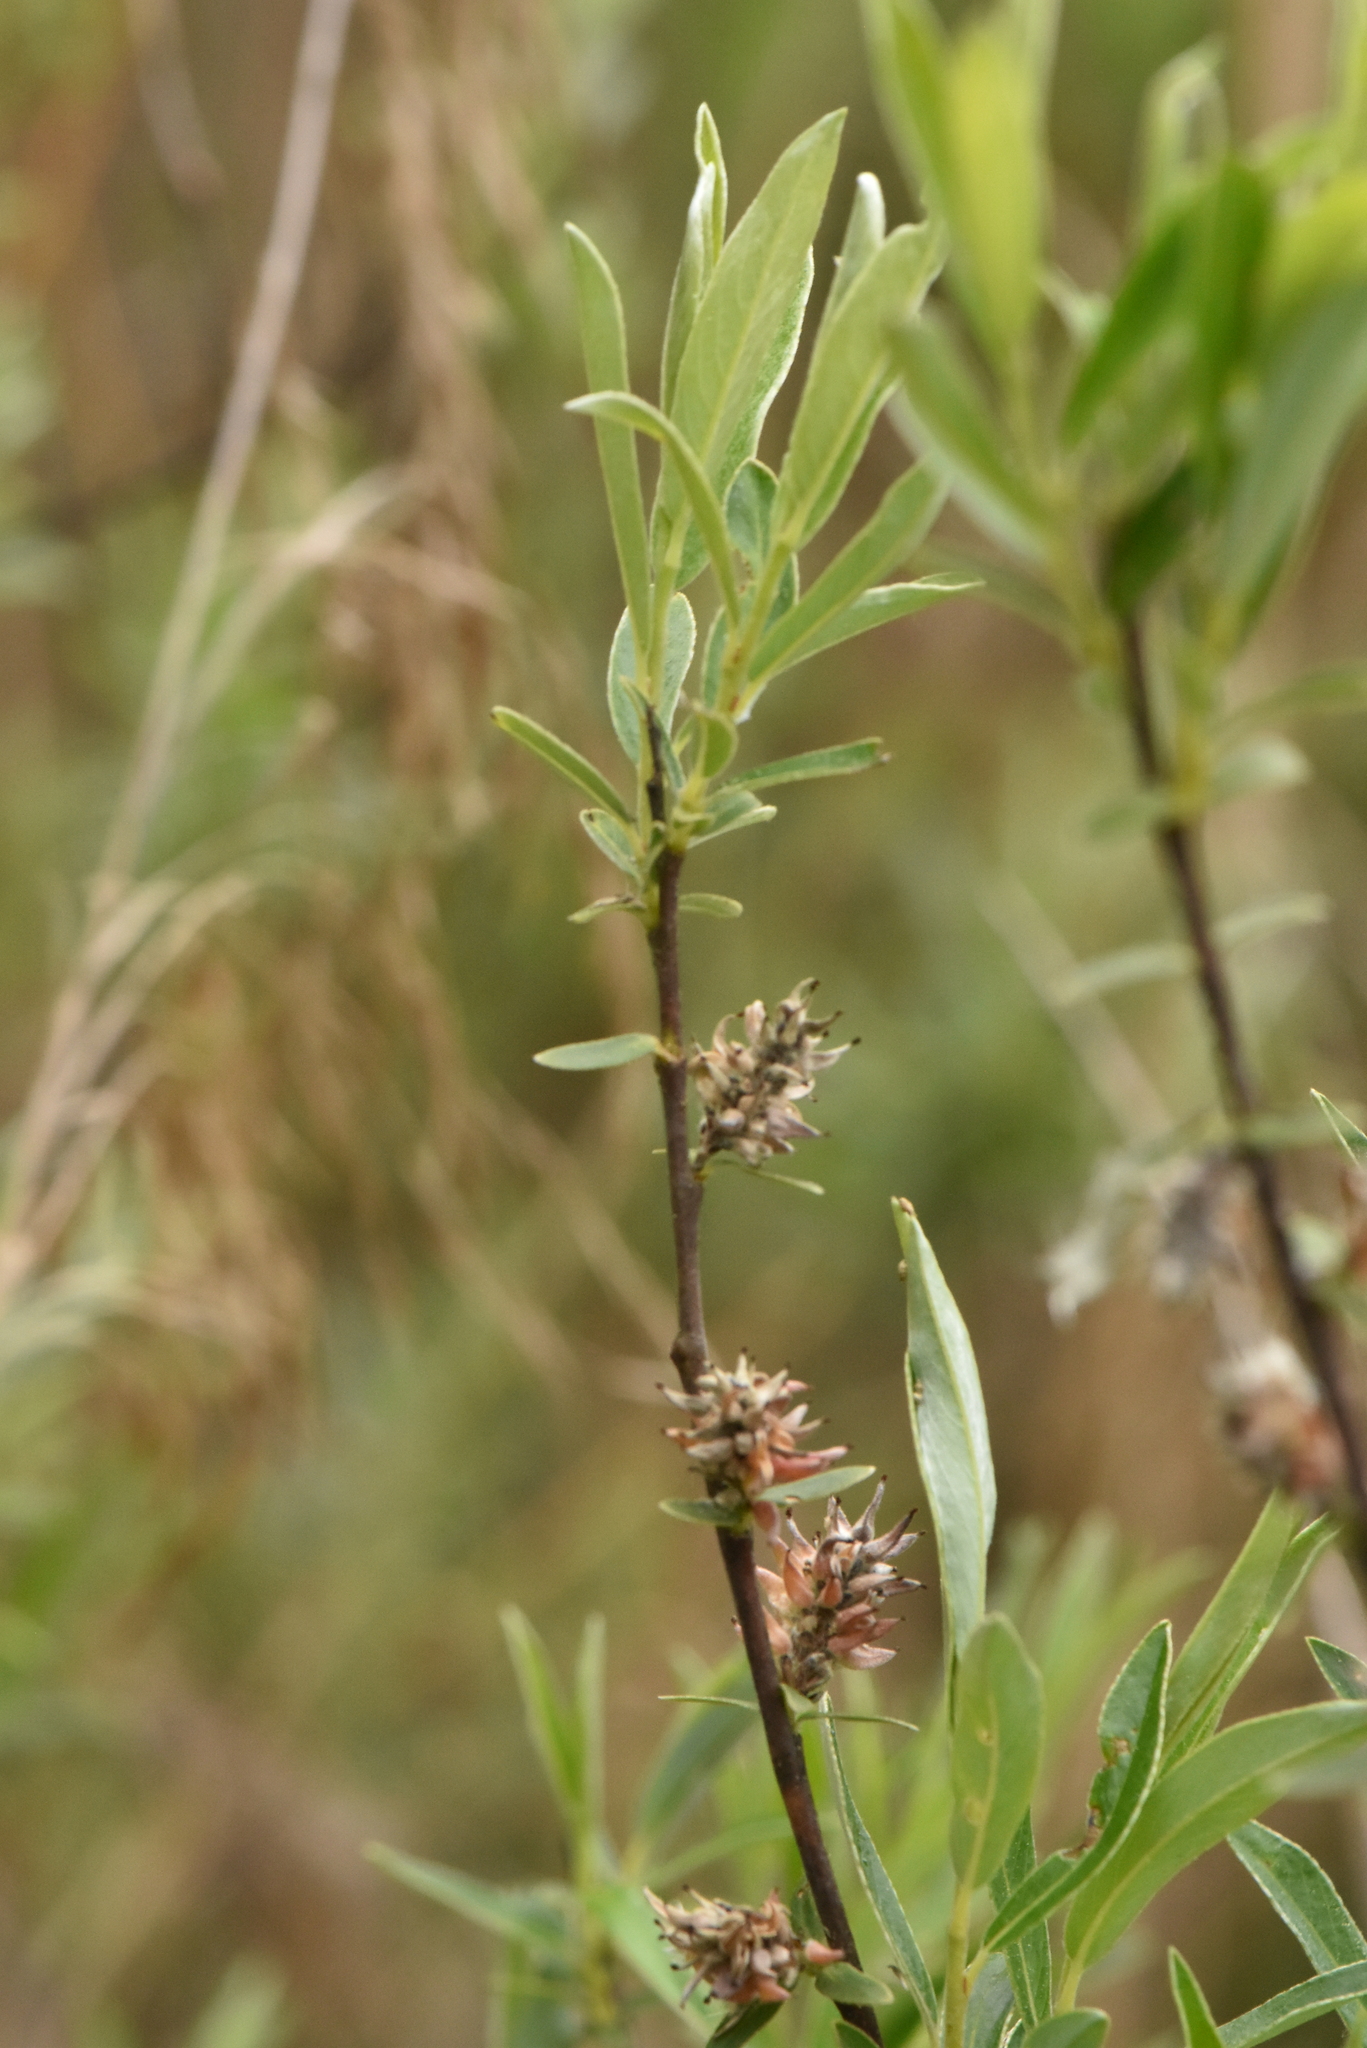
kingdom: Plantae
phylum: Tracheophyta
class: Magnoliopsida
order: Malpighiales
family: Salicaceae
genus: Salix
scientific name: Salix rosmarinifolia
